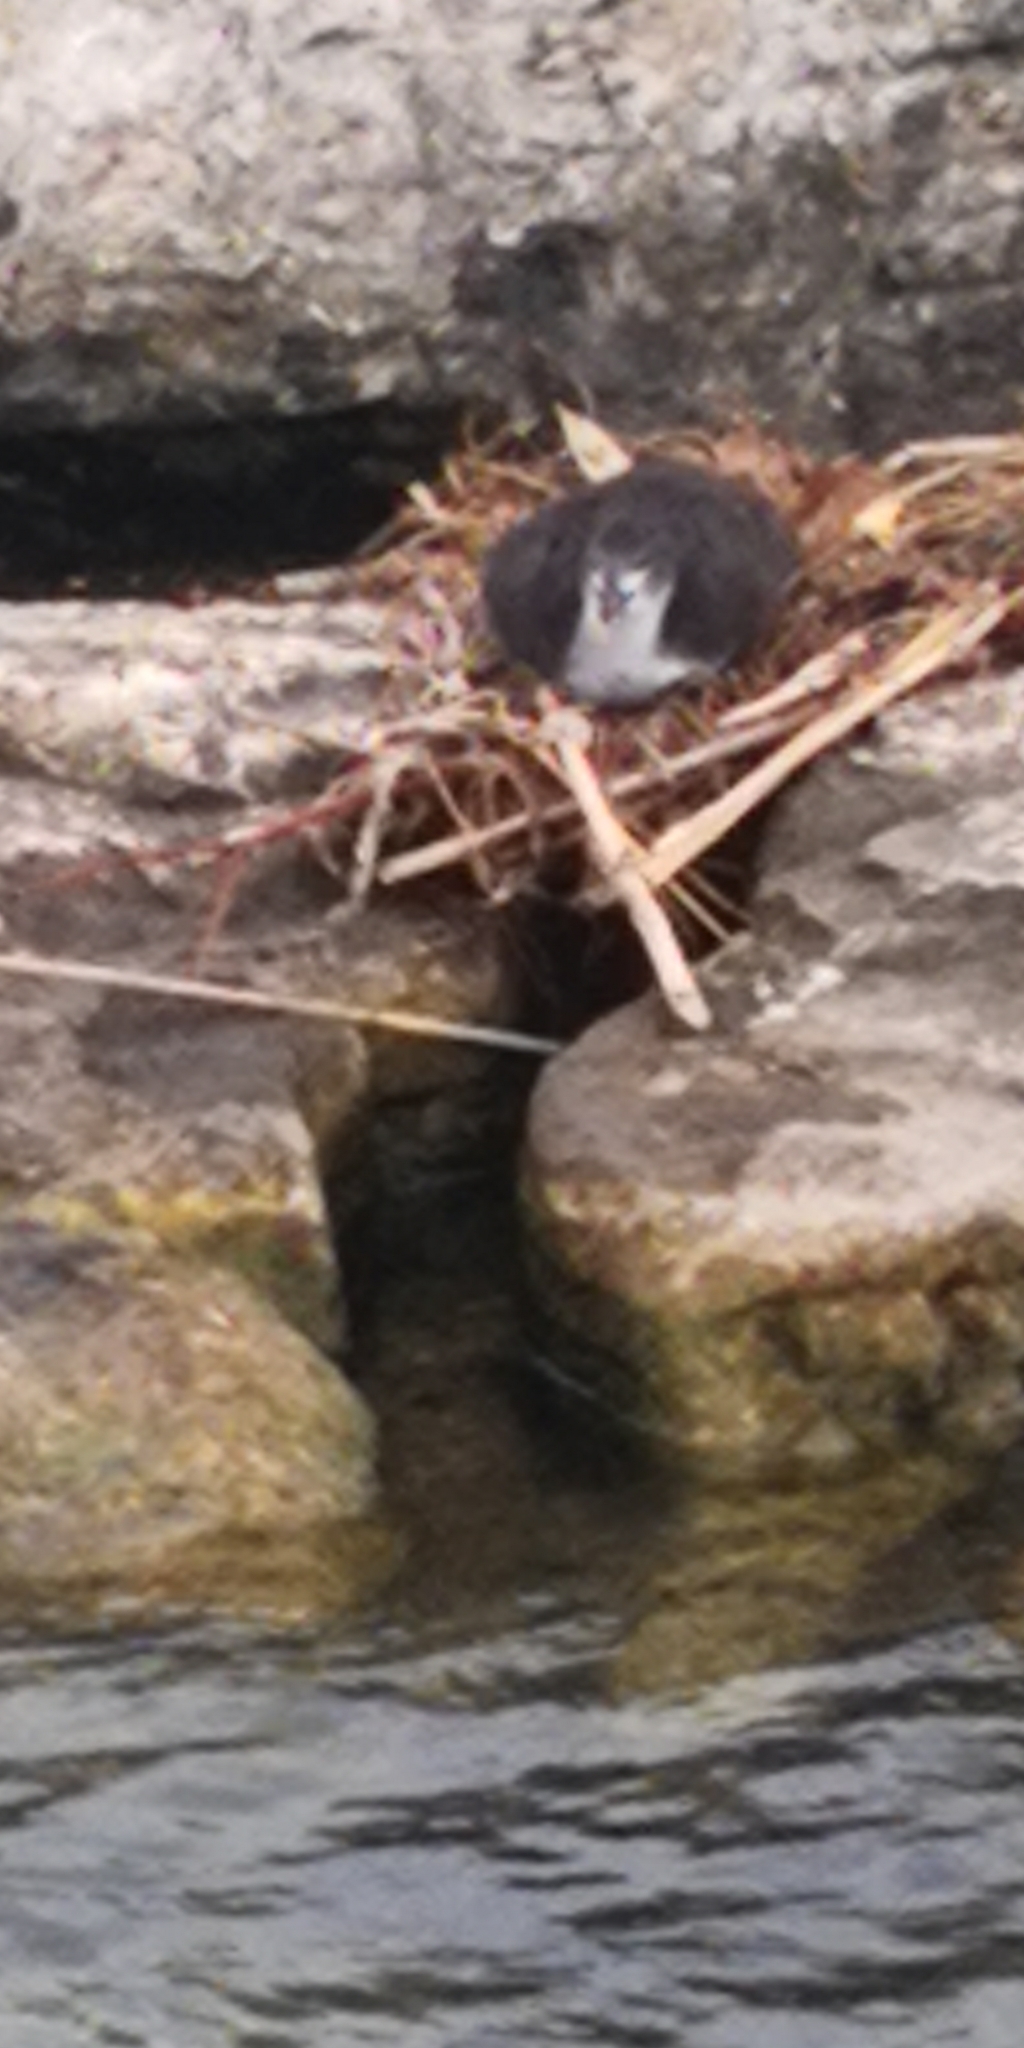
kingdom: Animalia
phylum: Chordata
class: Aves
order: Gruiformes
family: Rallidae
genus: Fulica
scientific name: Fulica atra
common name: Eurasian coot
